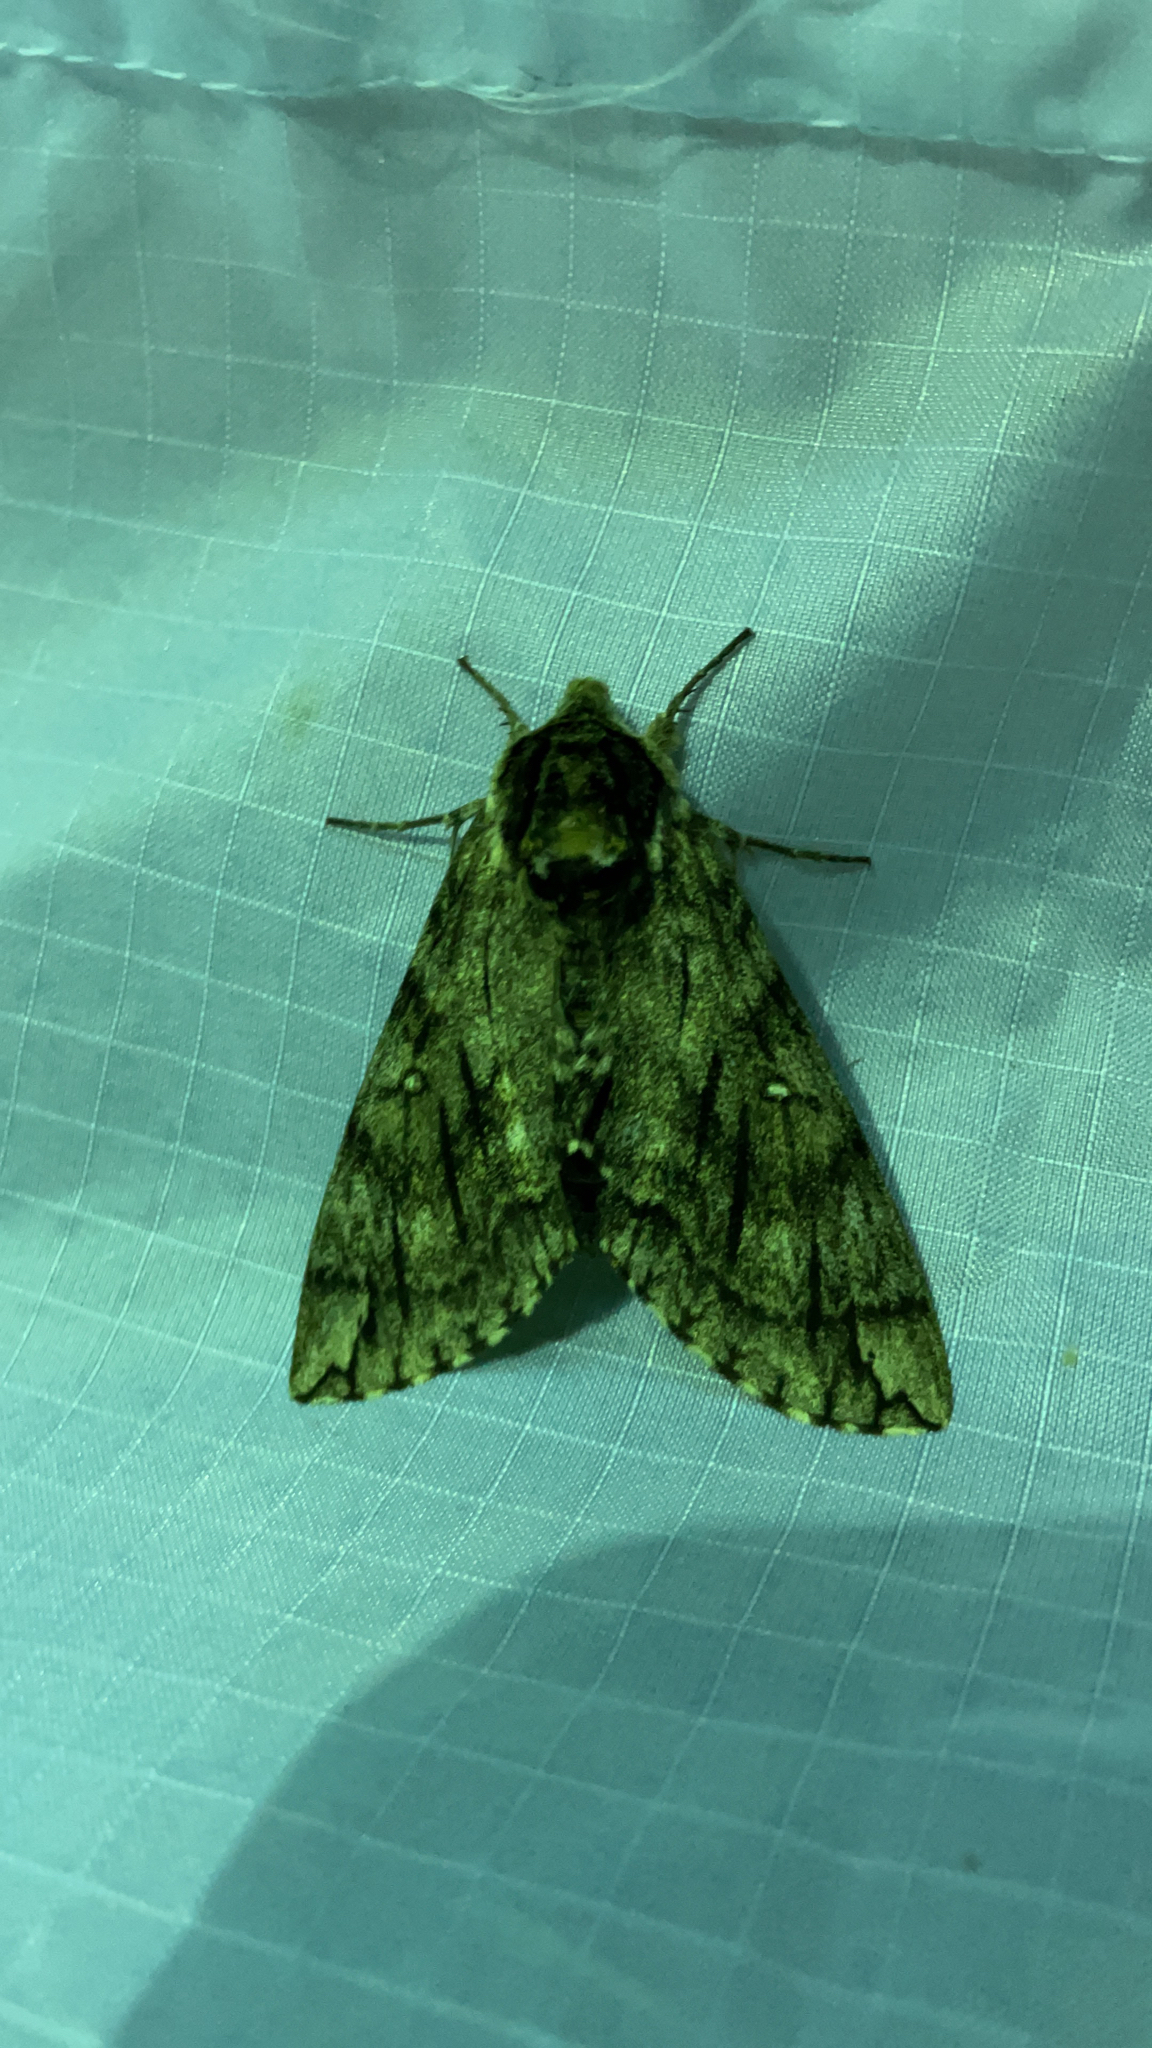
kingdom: Animalia
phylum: Arthropoda
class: Insecta
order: Lepidoptera
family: Sphingidae
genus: Ceratomia
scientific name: Ceratomia undulosa
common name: Waved sphinx
